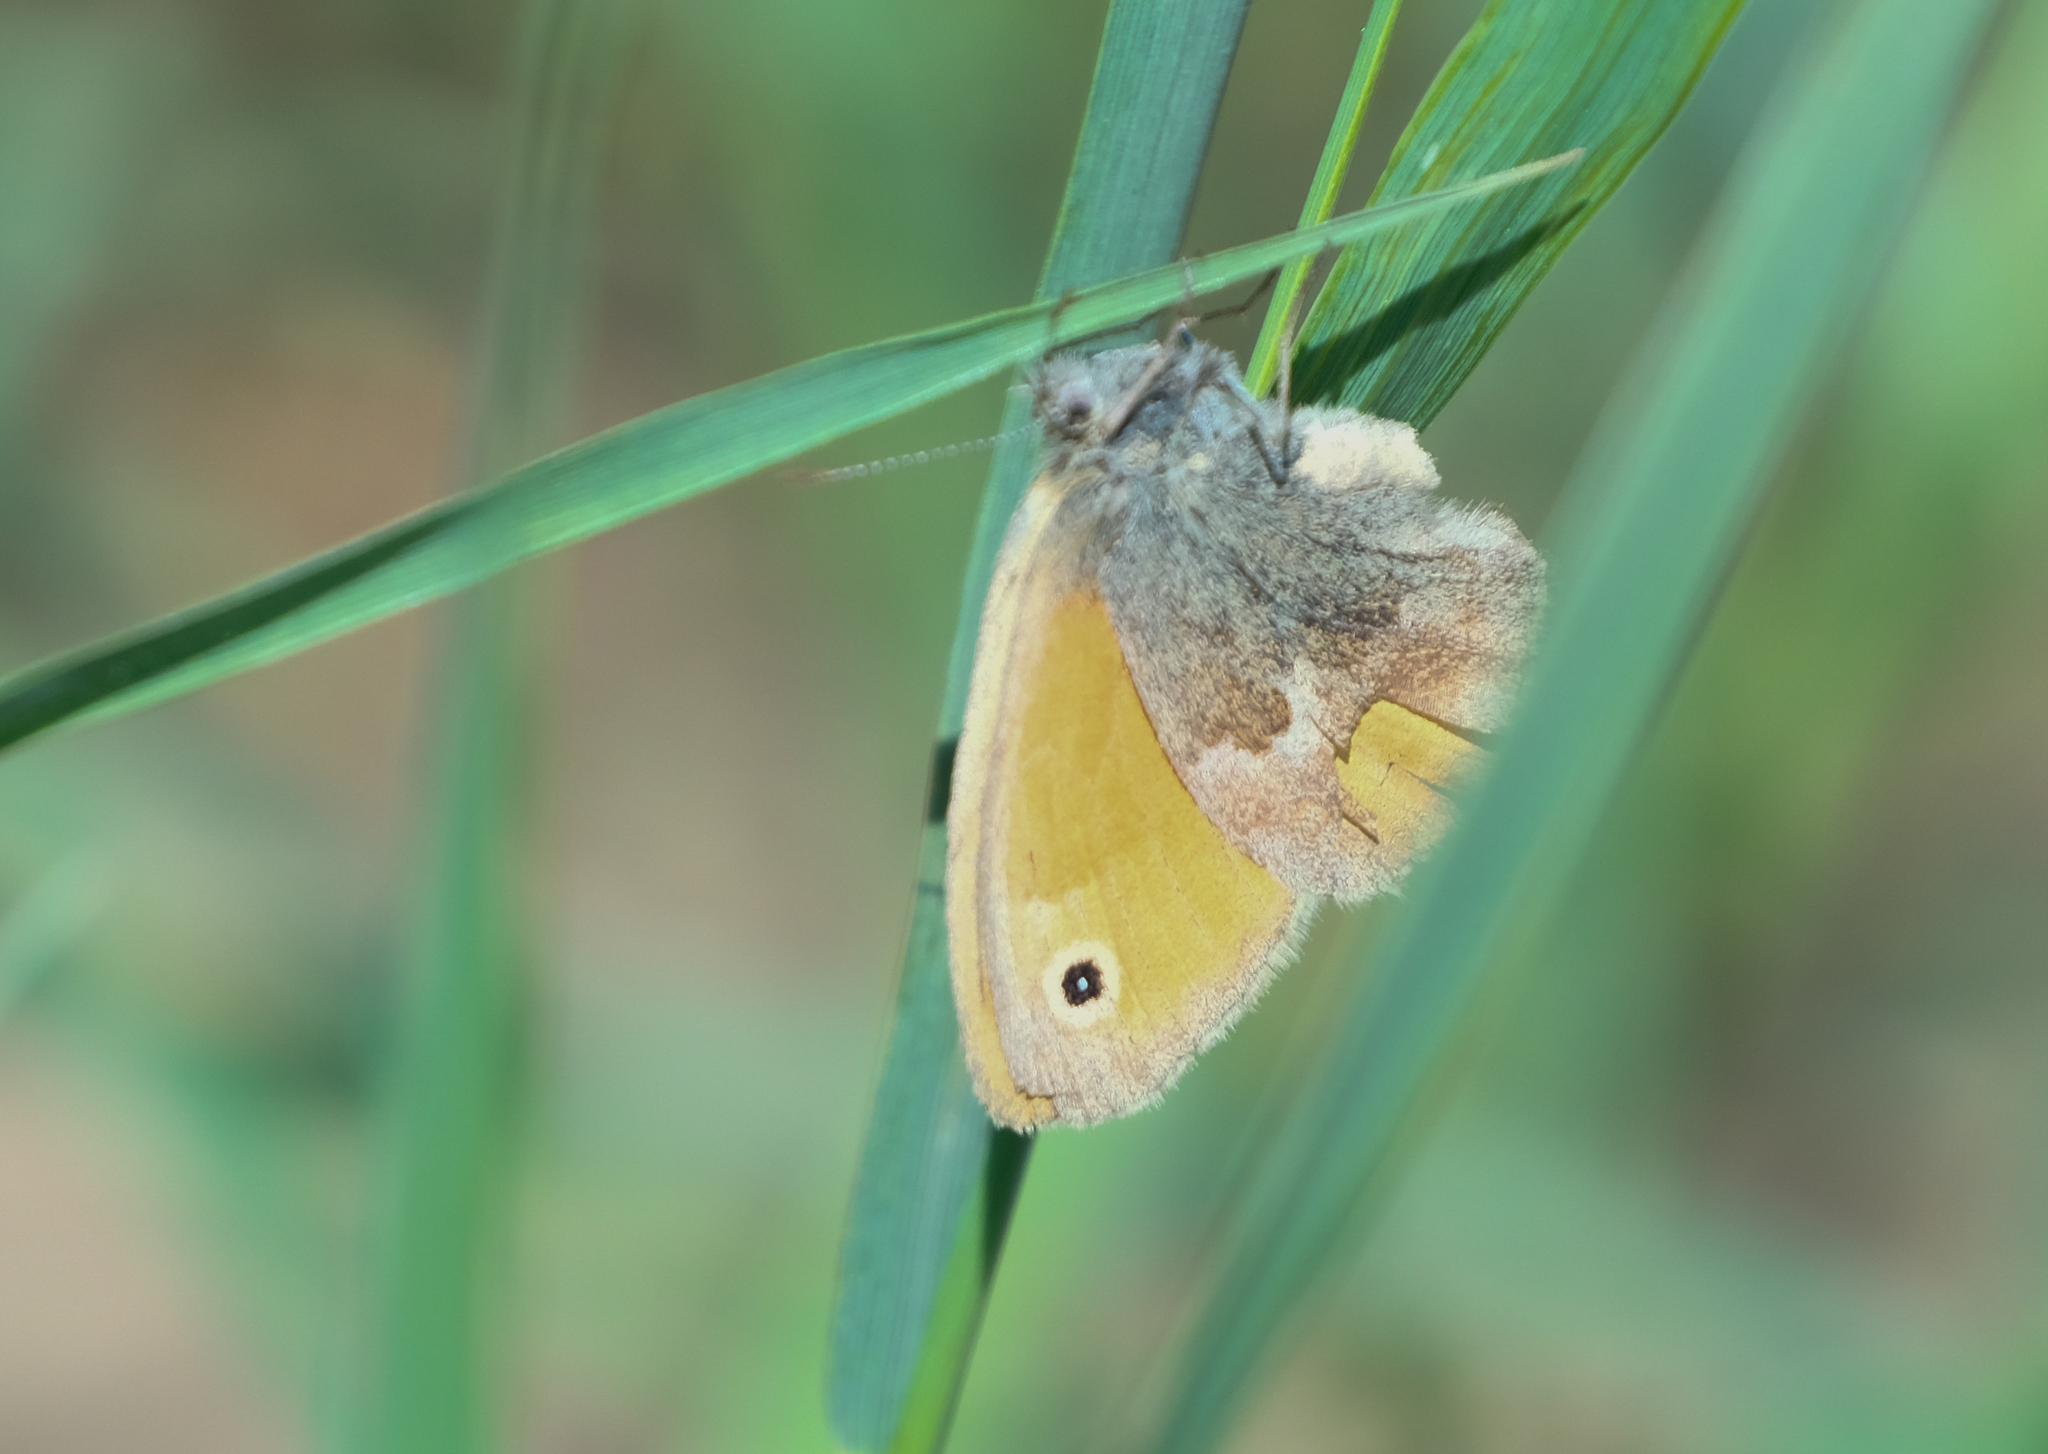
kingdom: Animalia
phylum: Arthropoda
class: Insecta
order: Lepidoptera
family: Nymphalidae
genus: Coenonympha
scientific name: Coenonympha pamphilus
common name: Small heath
